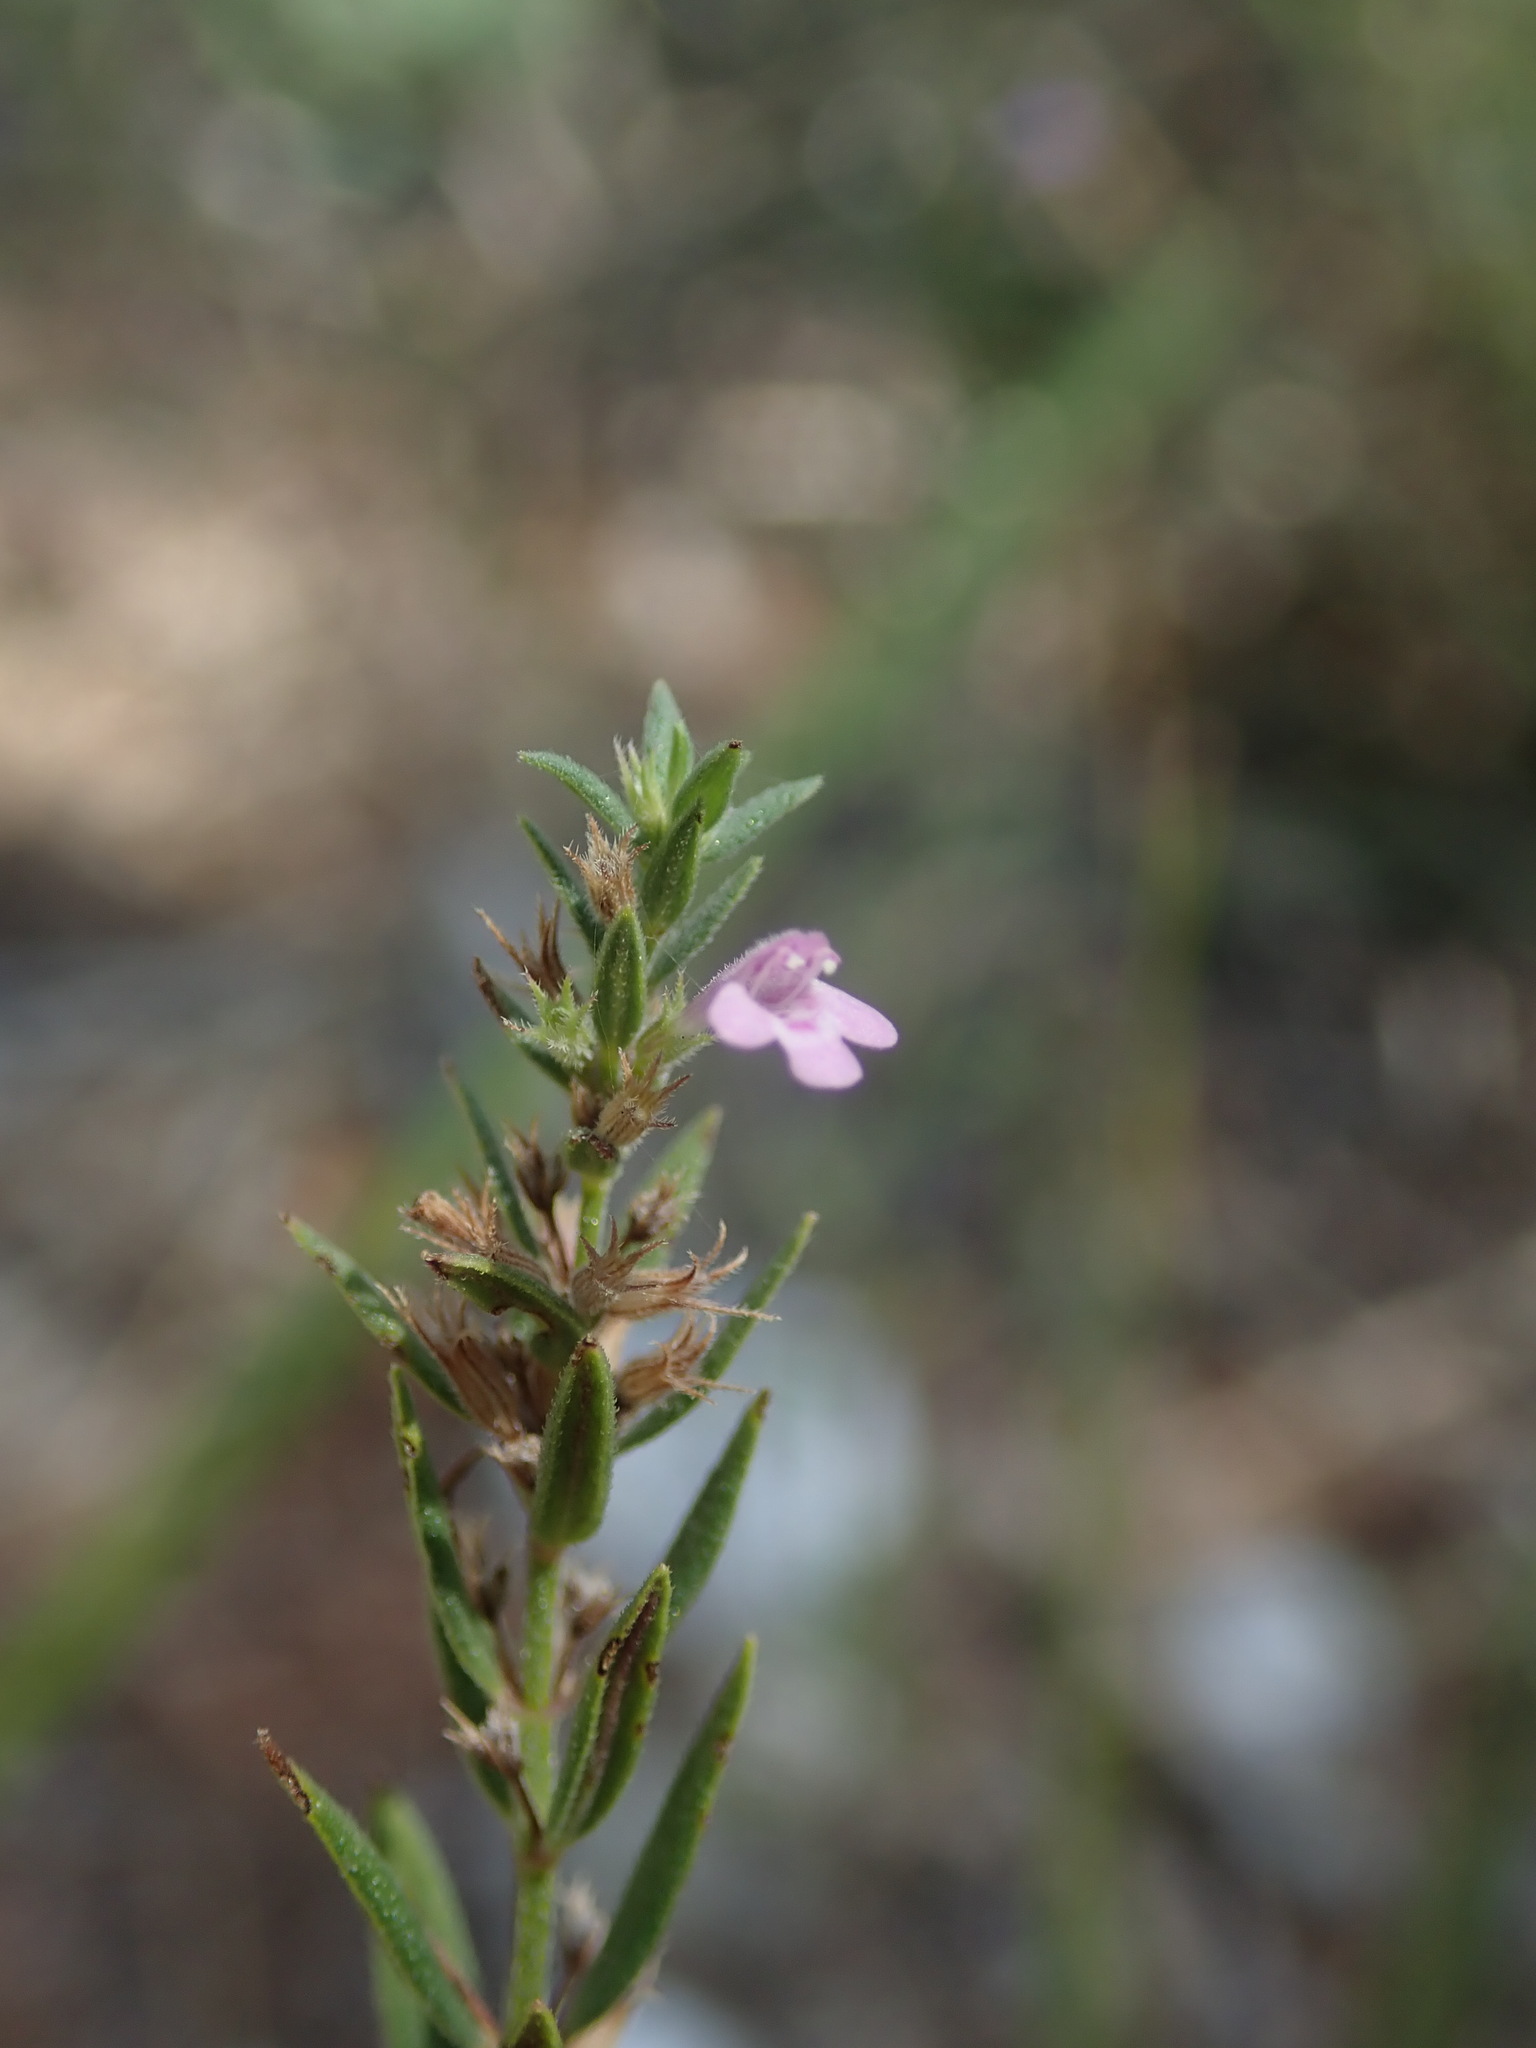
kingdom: Plantae
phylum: Tracheophyta
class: Magnoliopsida
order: Lamiales
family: Lamiaceae
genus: Micromeria
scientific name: Micromeria graeca
